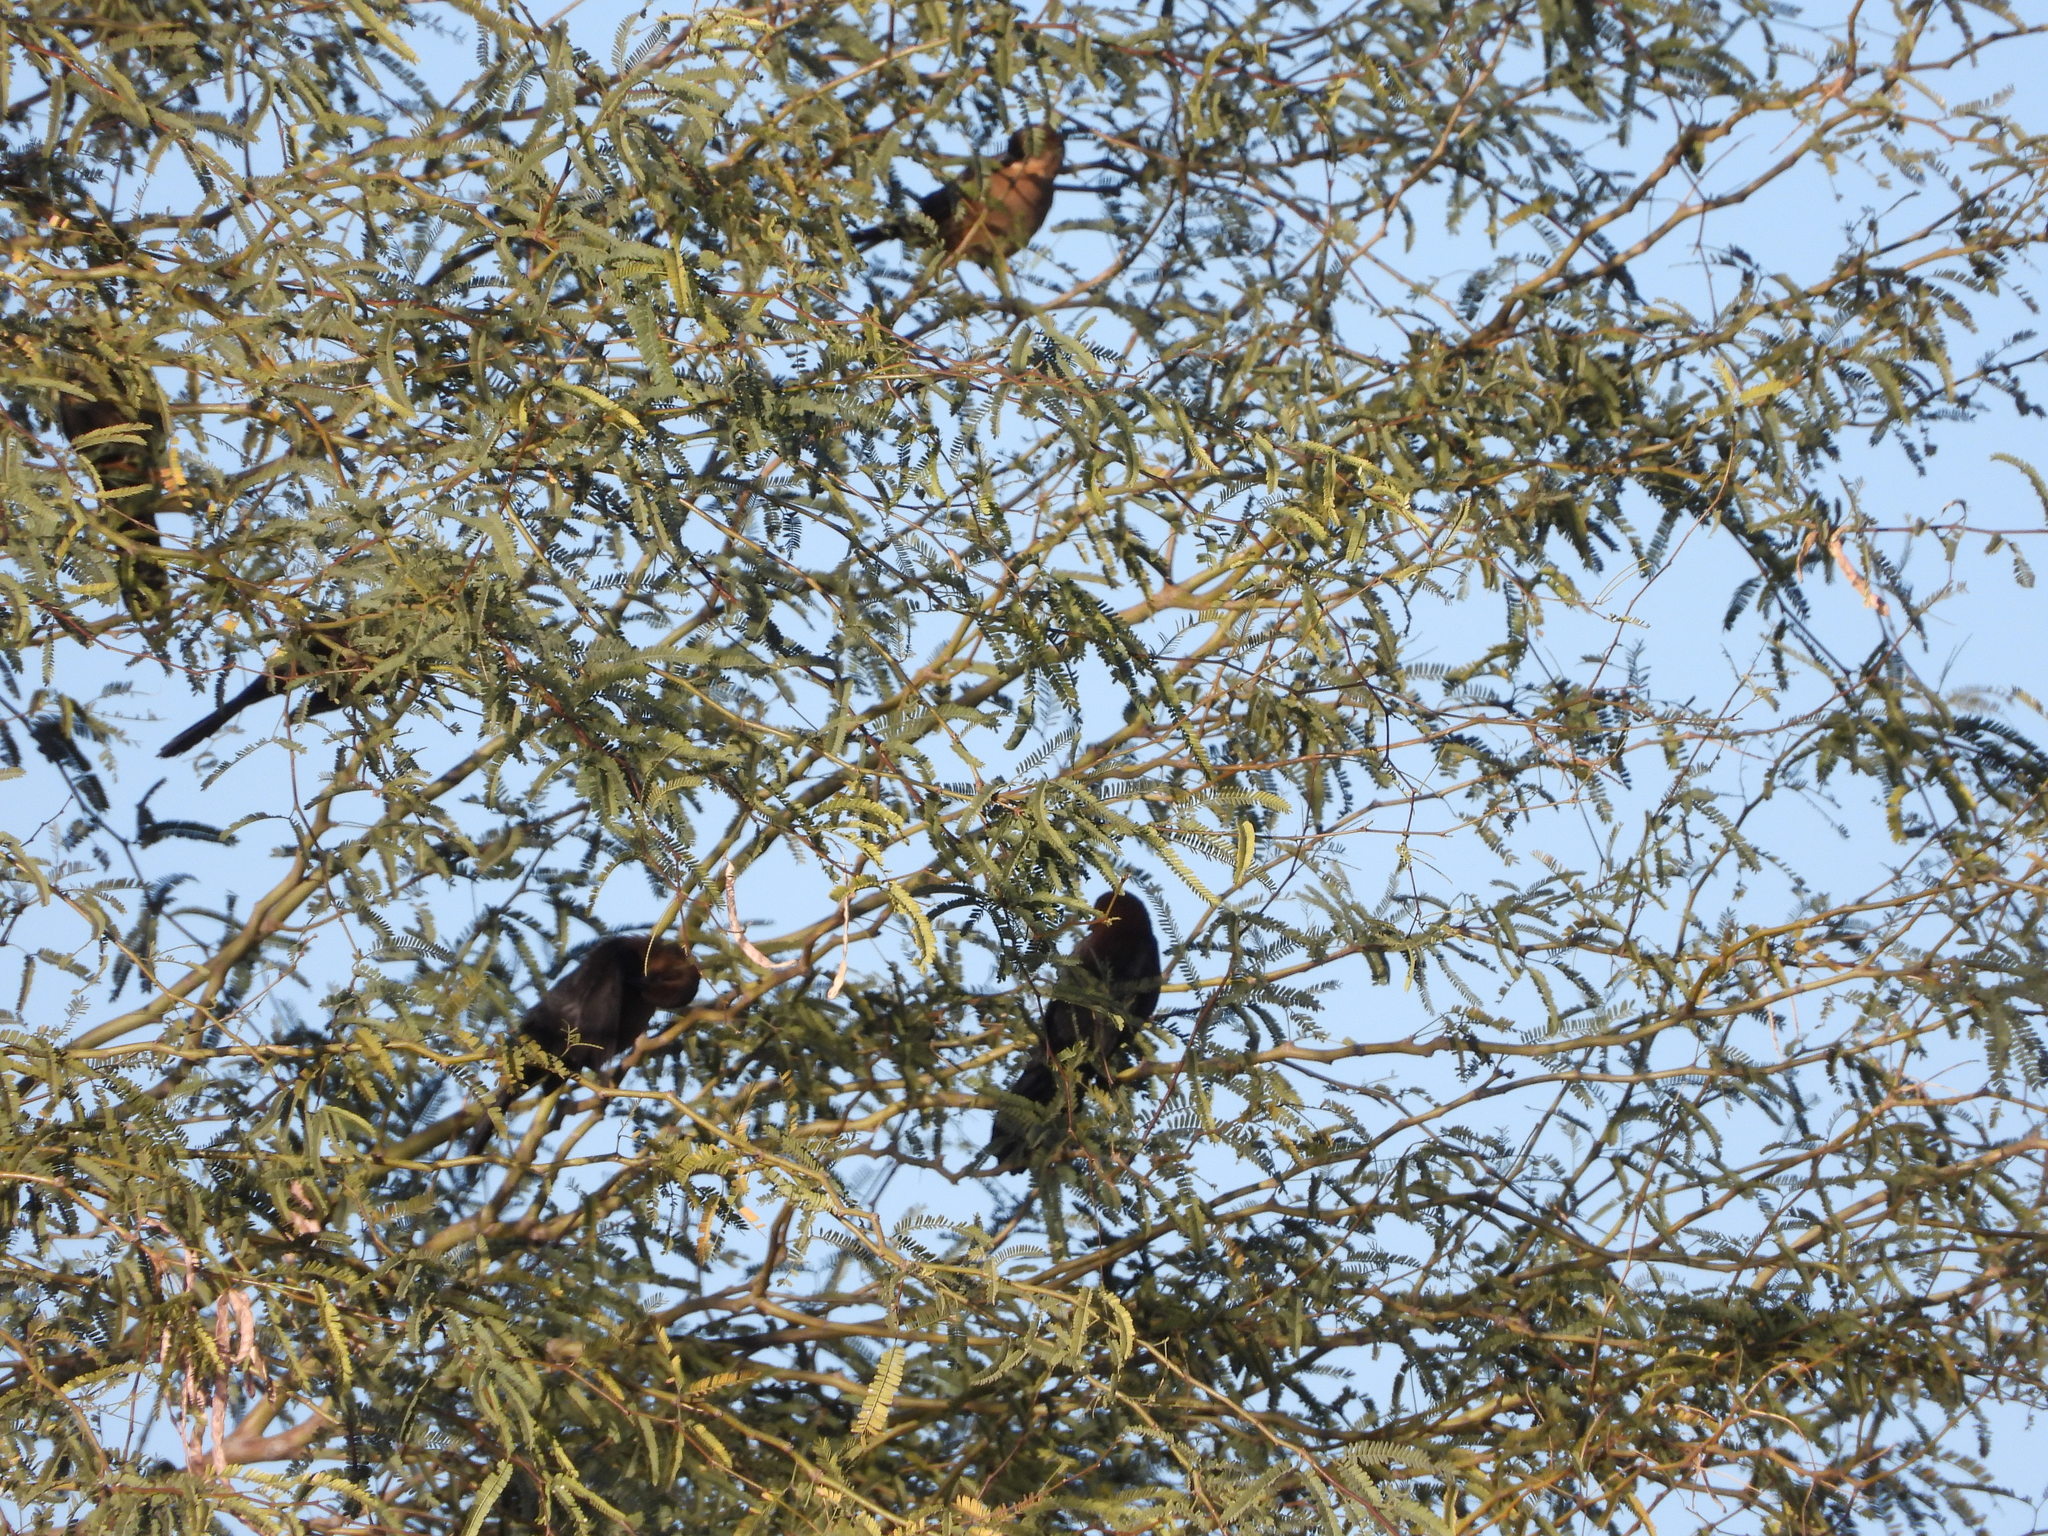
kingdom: Animalia
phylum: Chordata
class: Aves
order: Passeriformes
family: Icteridae
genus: Quiscalus
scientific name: Quiscalus mexicanus
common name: Great-tailed grackle
